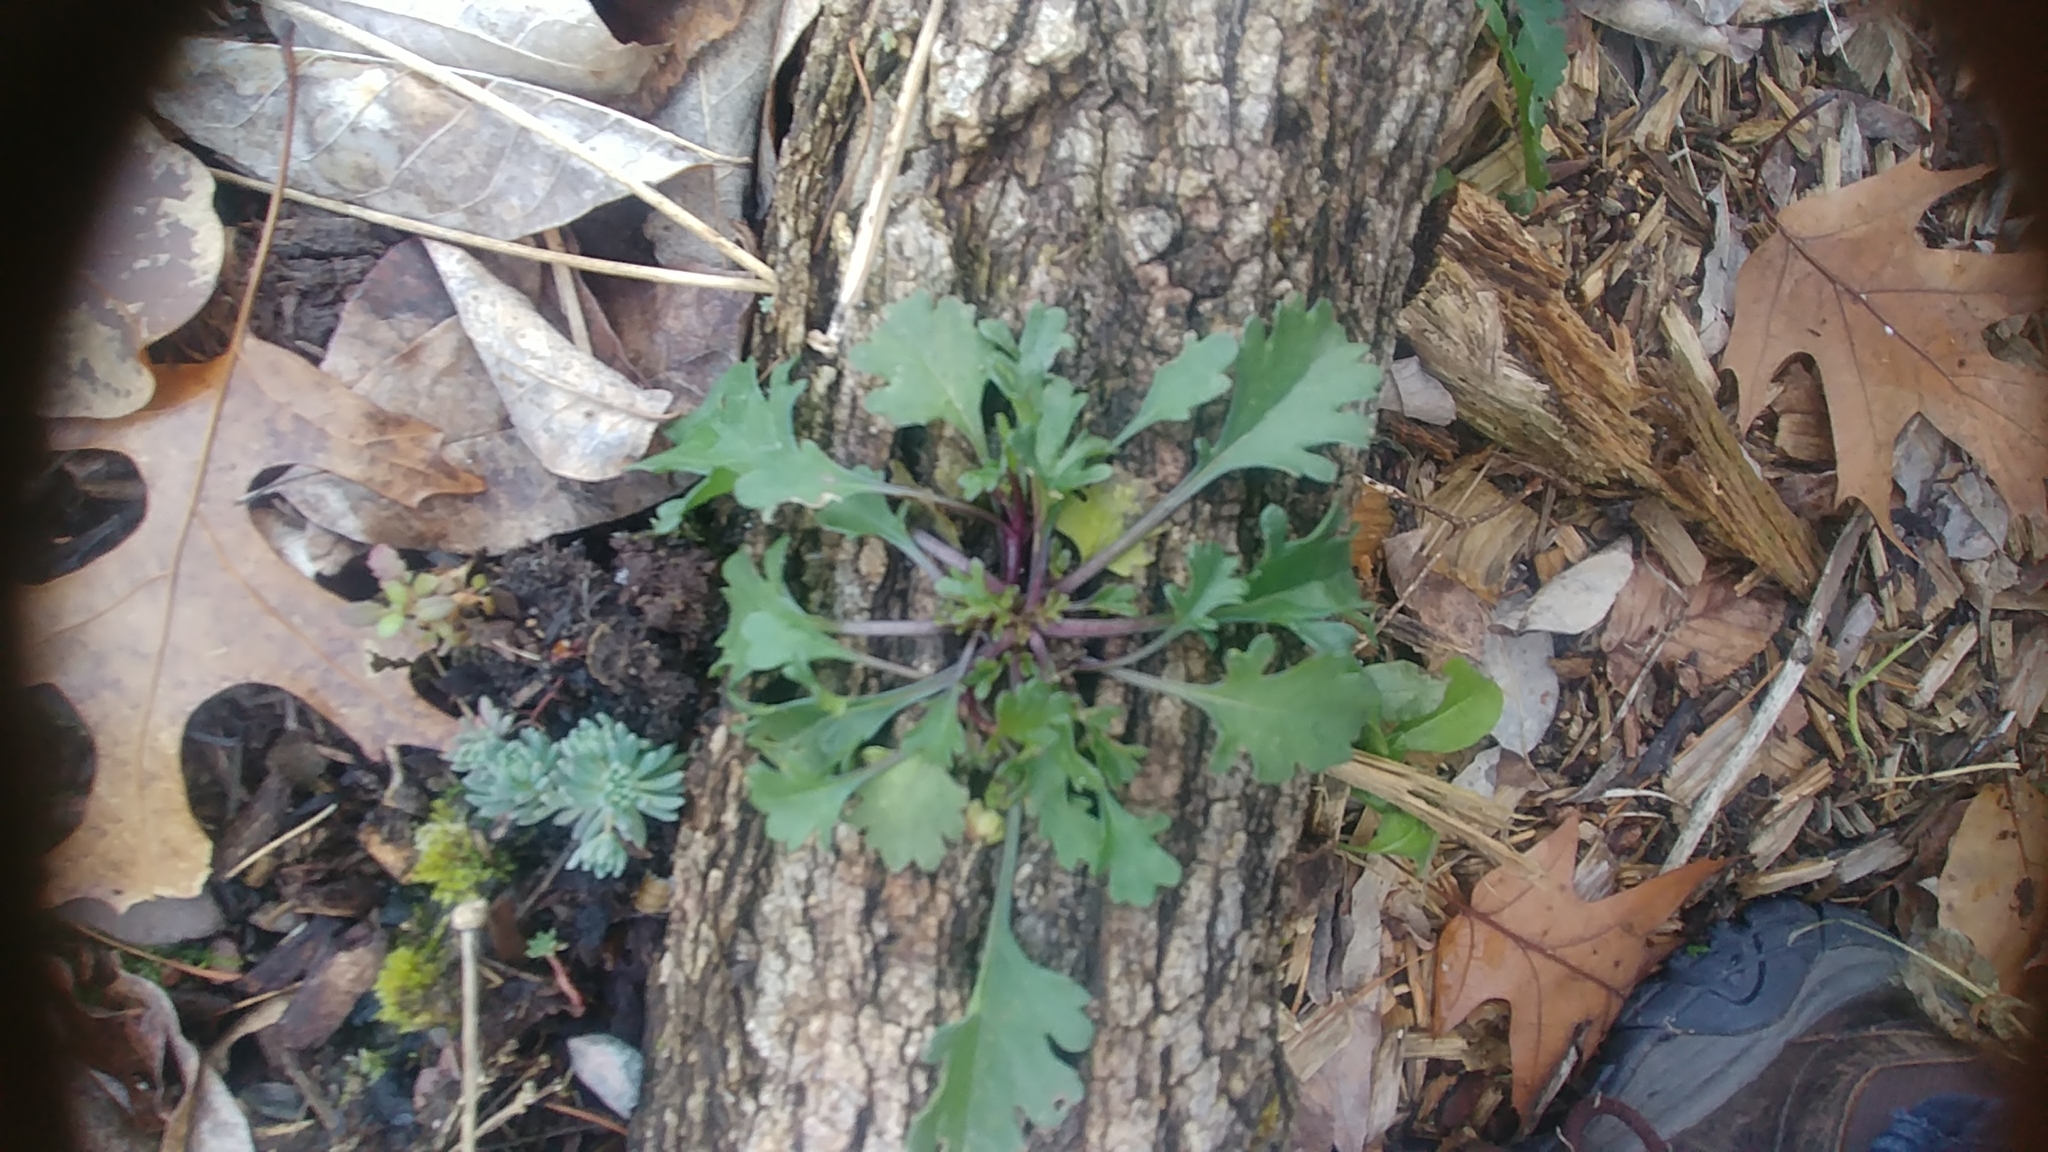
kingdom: Plantae
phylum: Tracheophyta
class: Magnoliopsida
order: Asterales
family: Asteraceae
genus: Leucanthemum
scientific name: Leucanthemum vulgare
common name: Oxeye daisy
